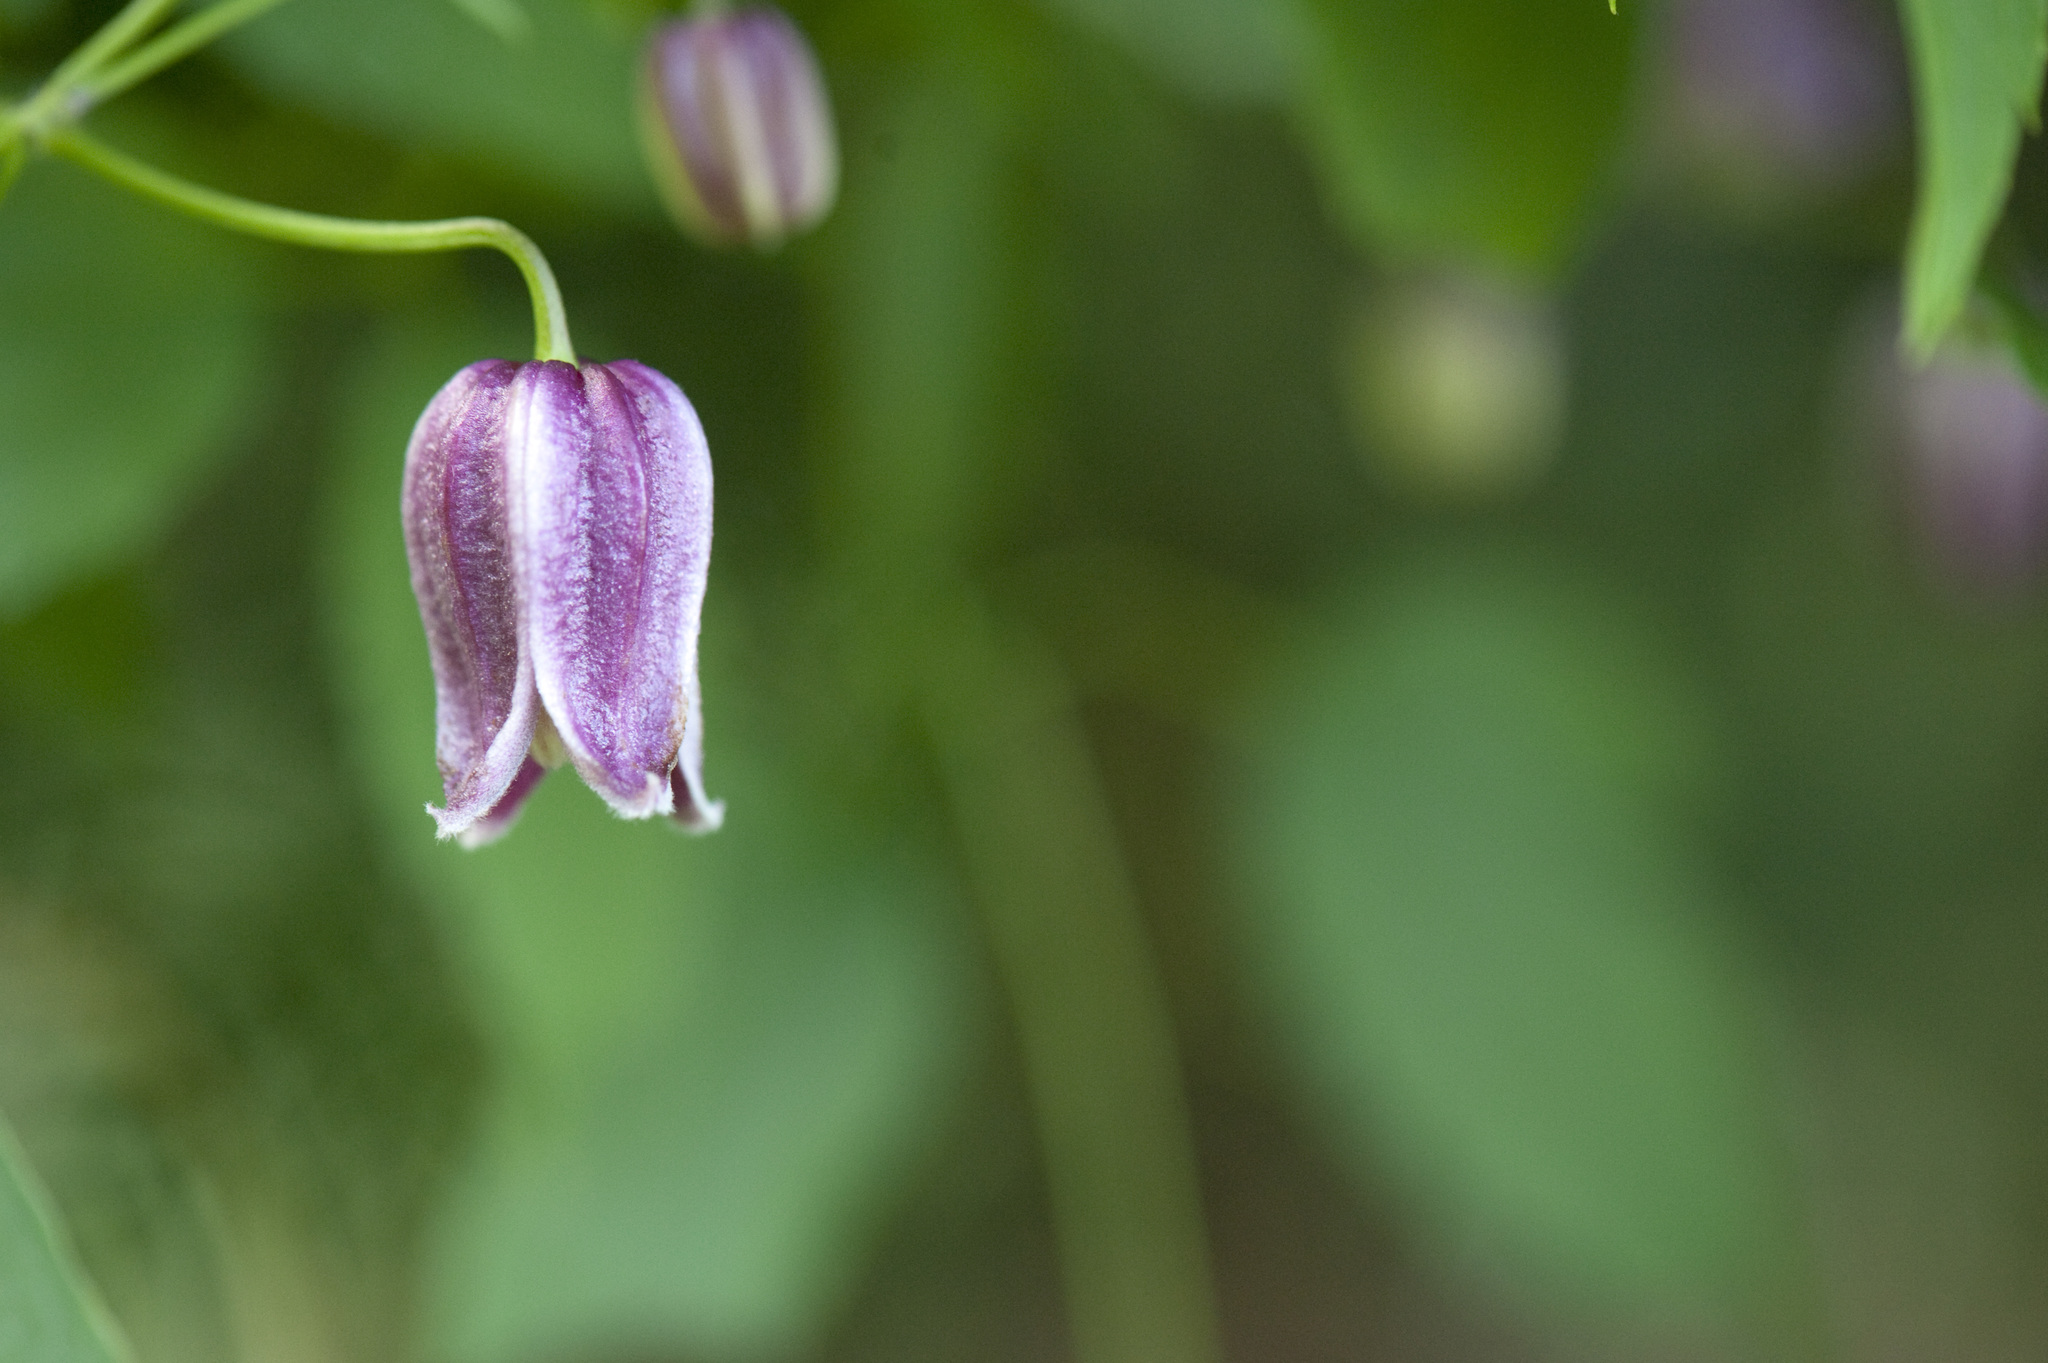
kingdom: Plantae
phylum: Tracheophyta
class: Magnoliopsida
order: Ranunculales
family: Ranunculaceae
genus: Clematis
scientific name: Clematis lasiandra
